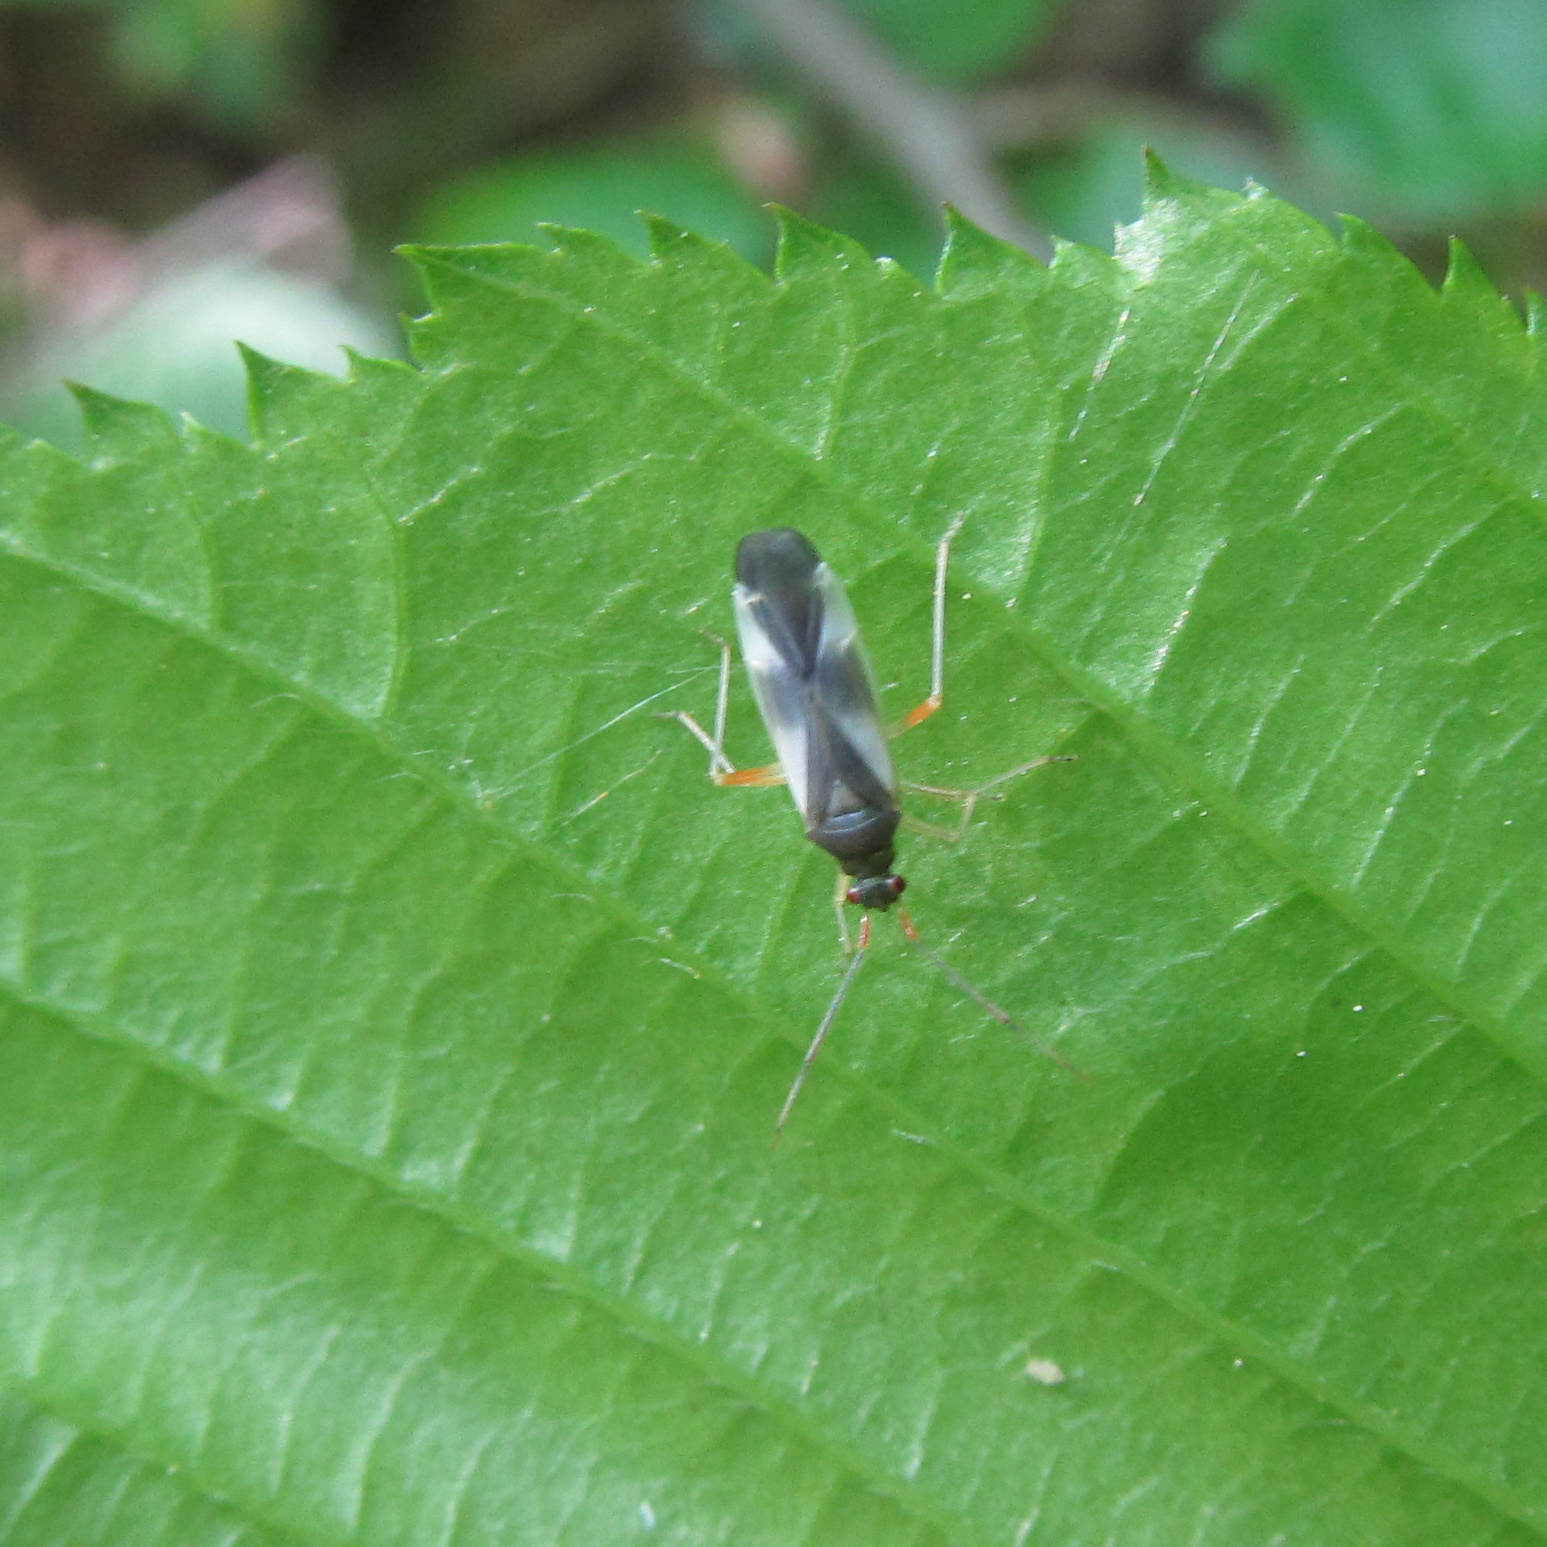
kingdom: Animalia
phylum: Arthropoda
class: Insecta
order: Hemiptera
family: Miridae
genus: Dryophilocoris
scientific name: Dryophilocoris flavoquadrimaculatus
